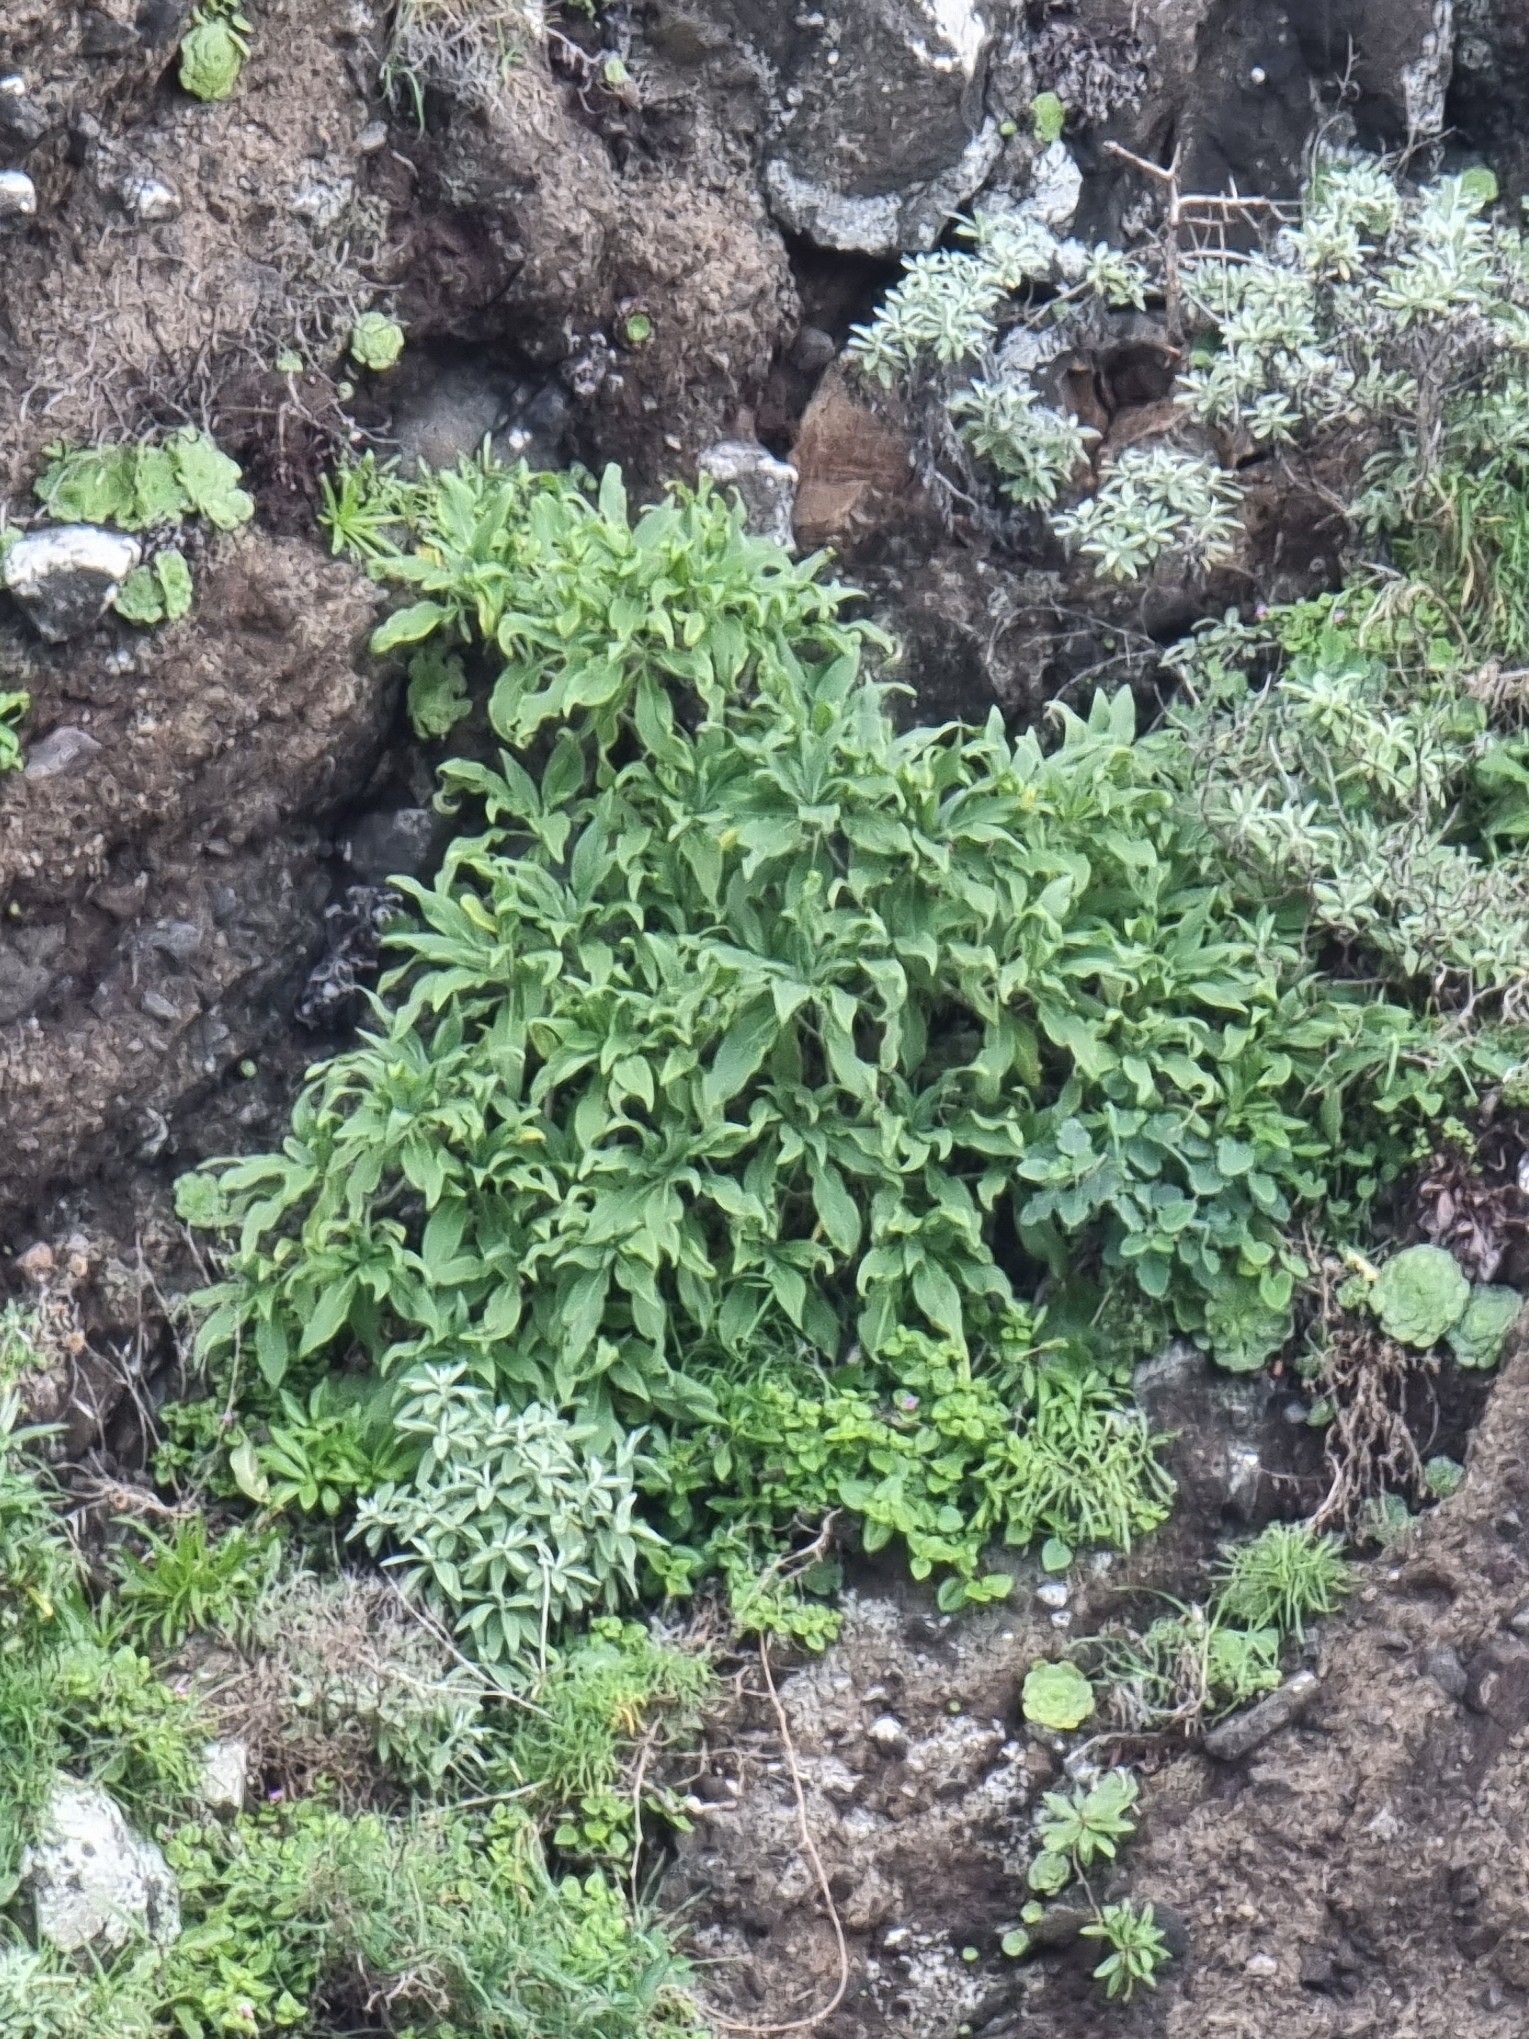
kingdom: Plantae
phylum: Tracheophyta
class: Magnoliopsida
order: Boraginales
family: Boraginaceae
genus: Echium
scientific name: Echium nervosum
